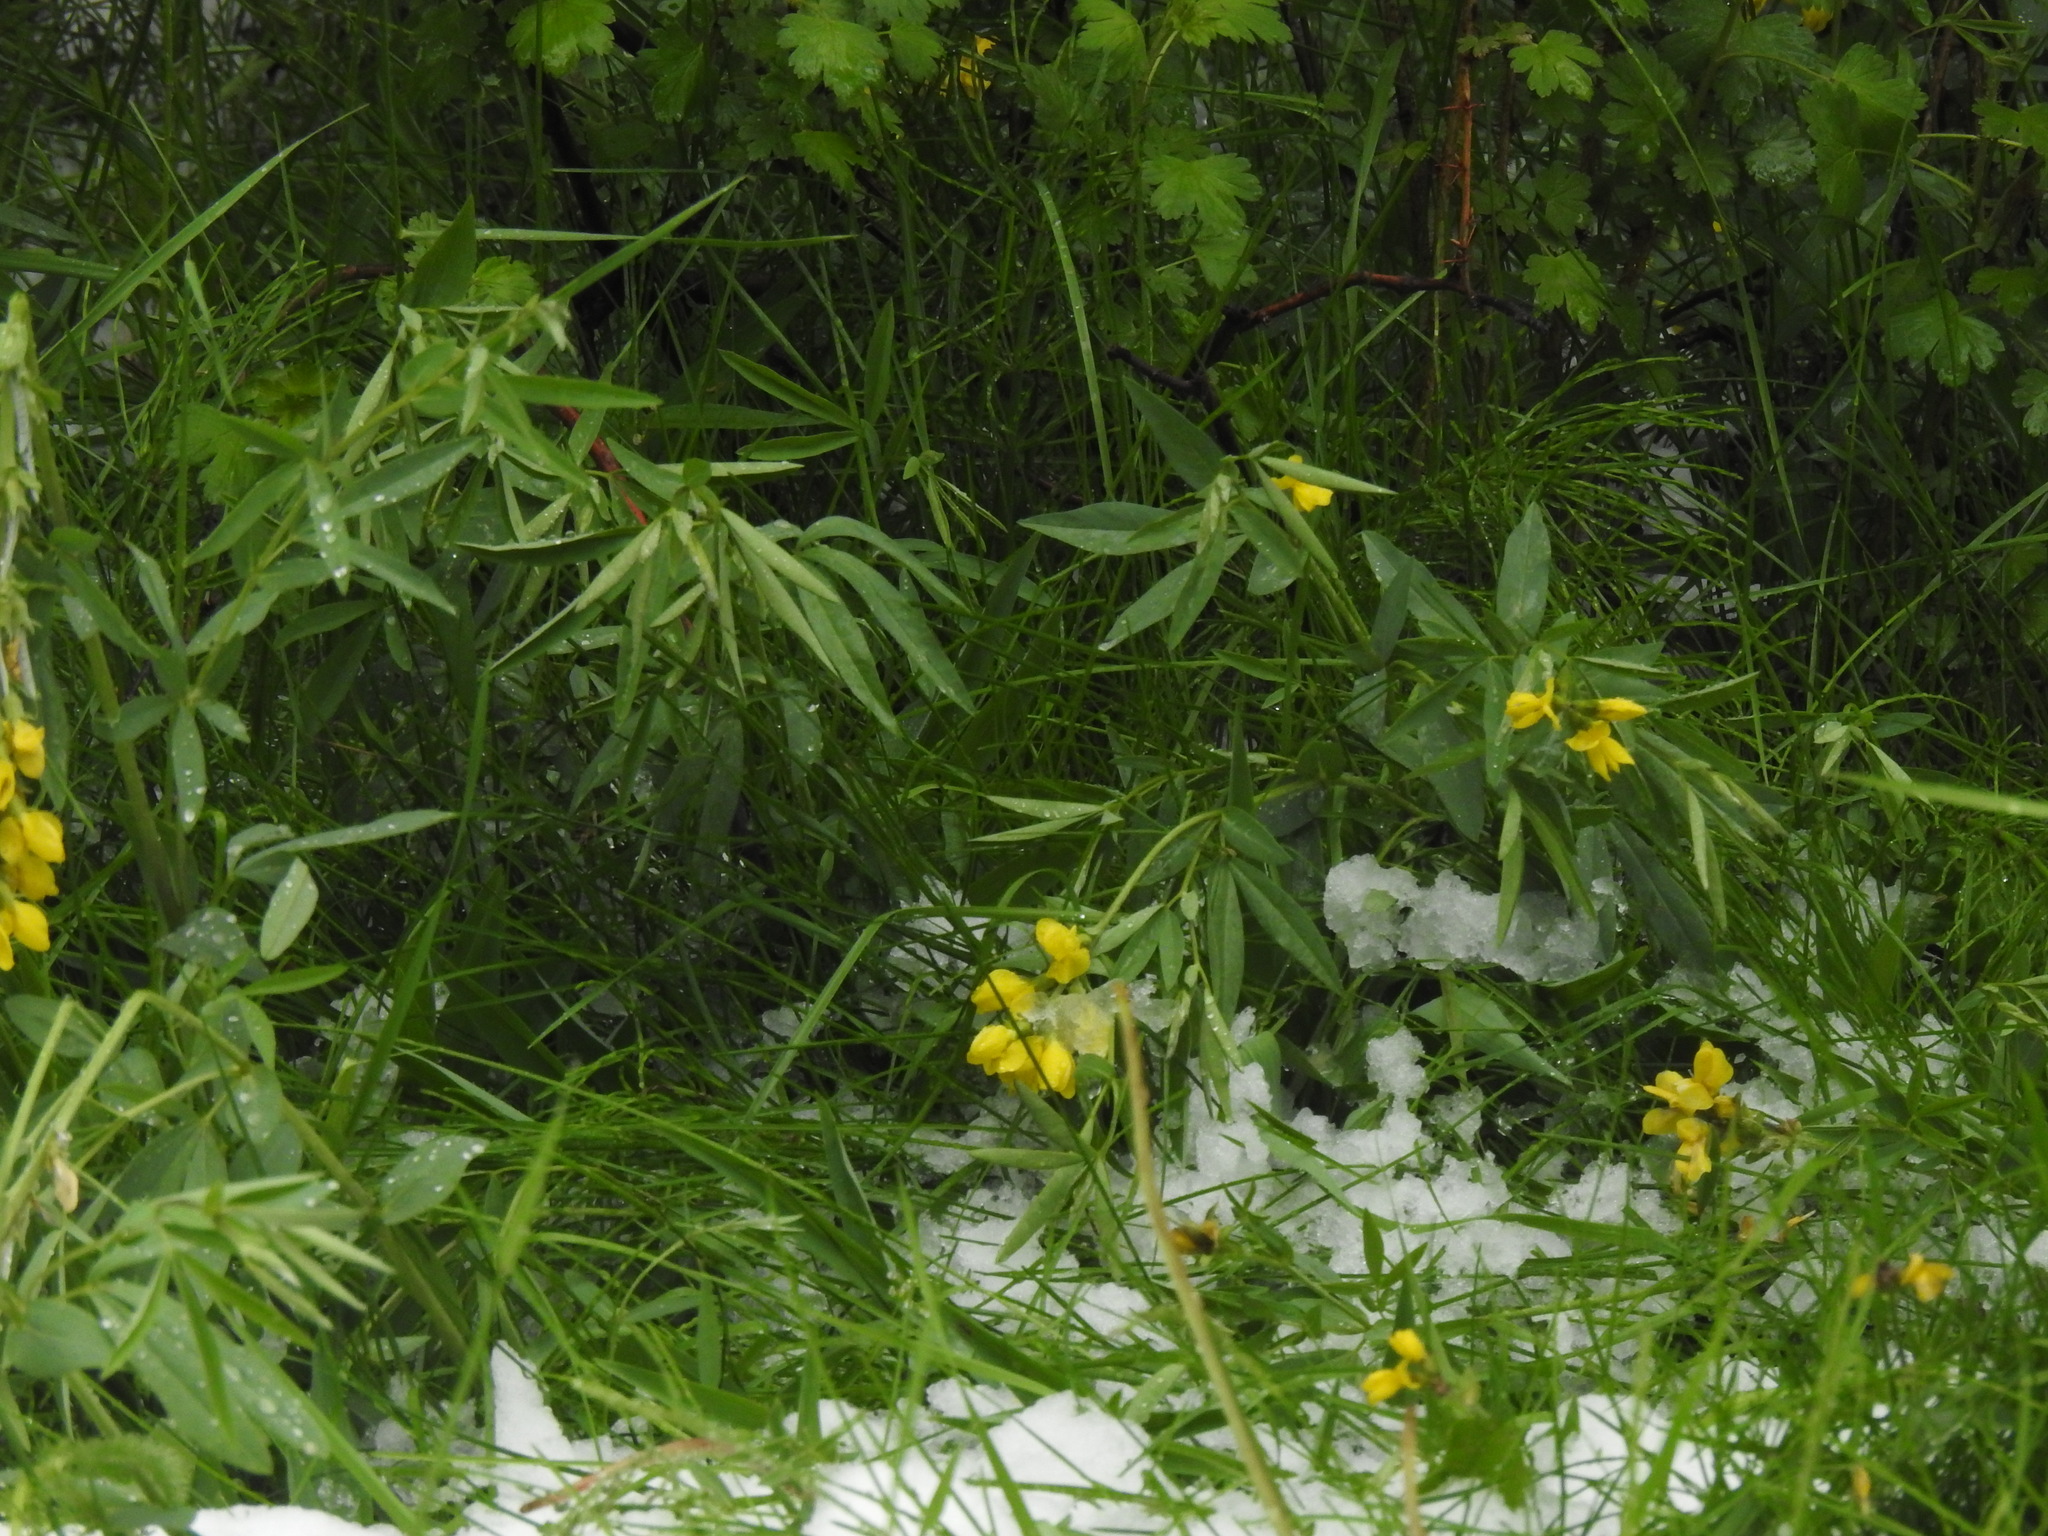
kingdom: Plantae
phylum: Tracheophyta
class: Magnoliopsida
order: Fabales
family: Fabaceae
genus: Thermopsis
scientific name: Thermopsis montana
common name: False lupin
